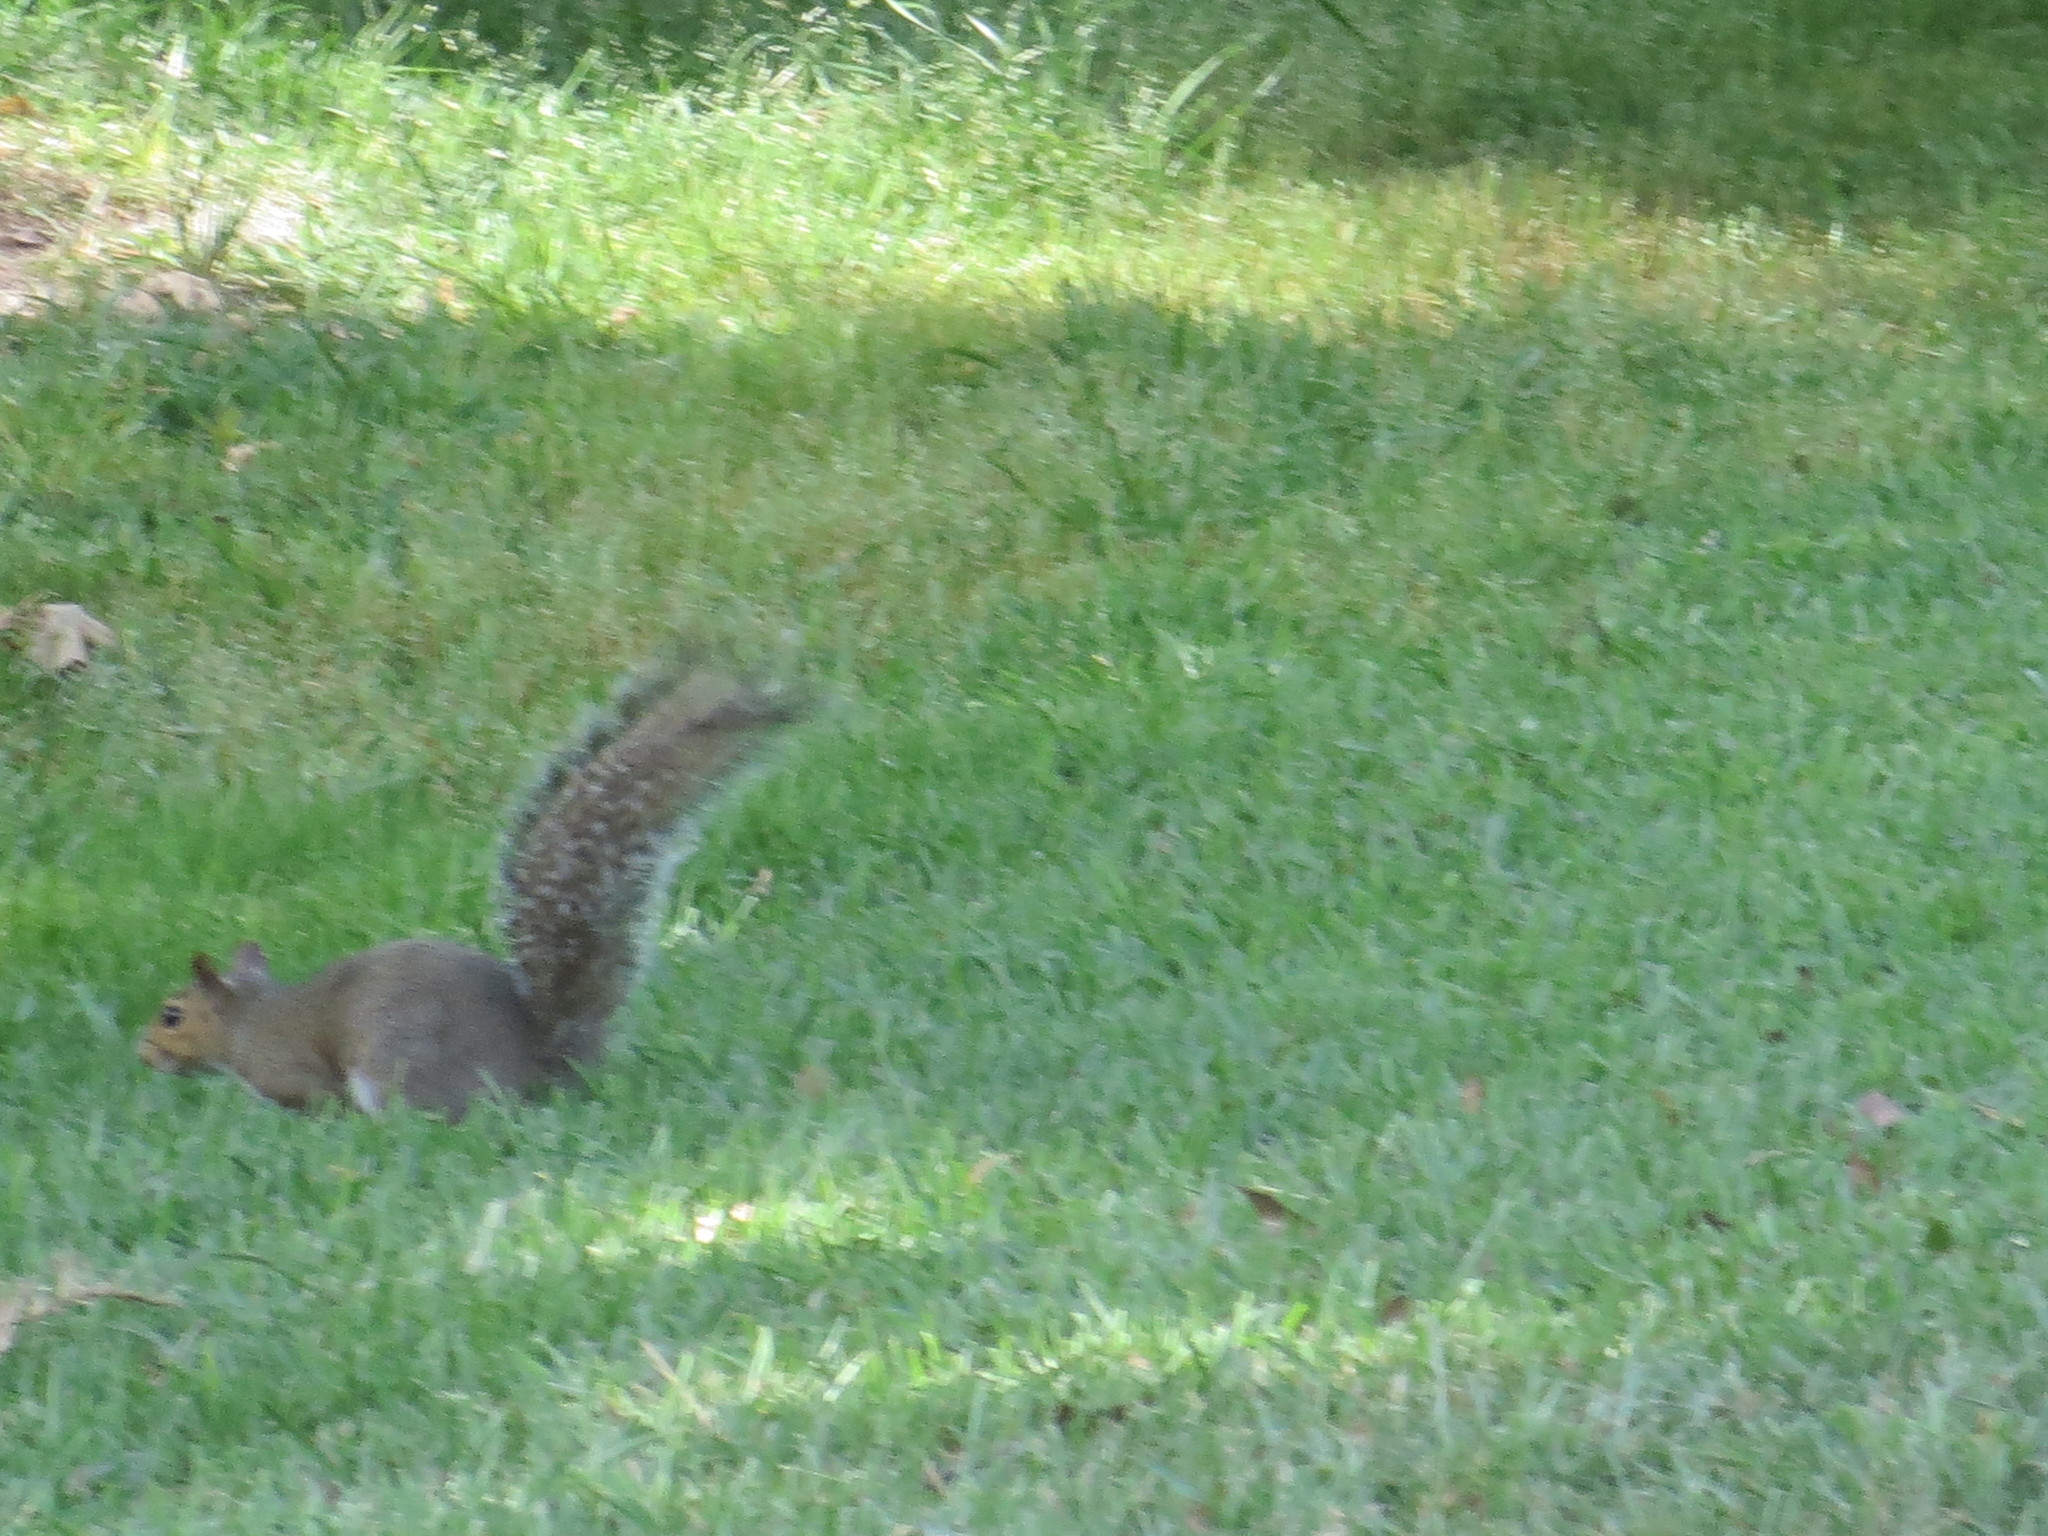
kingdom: Animalia
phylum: Chordata
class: Mammalia
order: Rodentia
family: Sciuridae
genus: Sciurus
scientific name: Sciurus carolinensis
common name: Eastern gray squirrel
